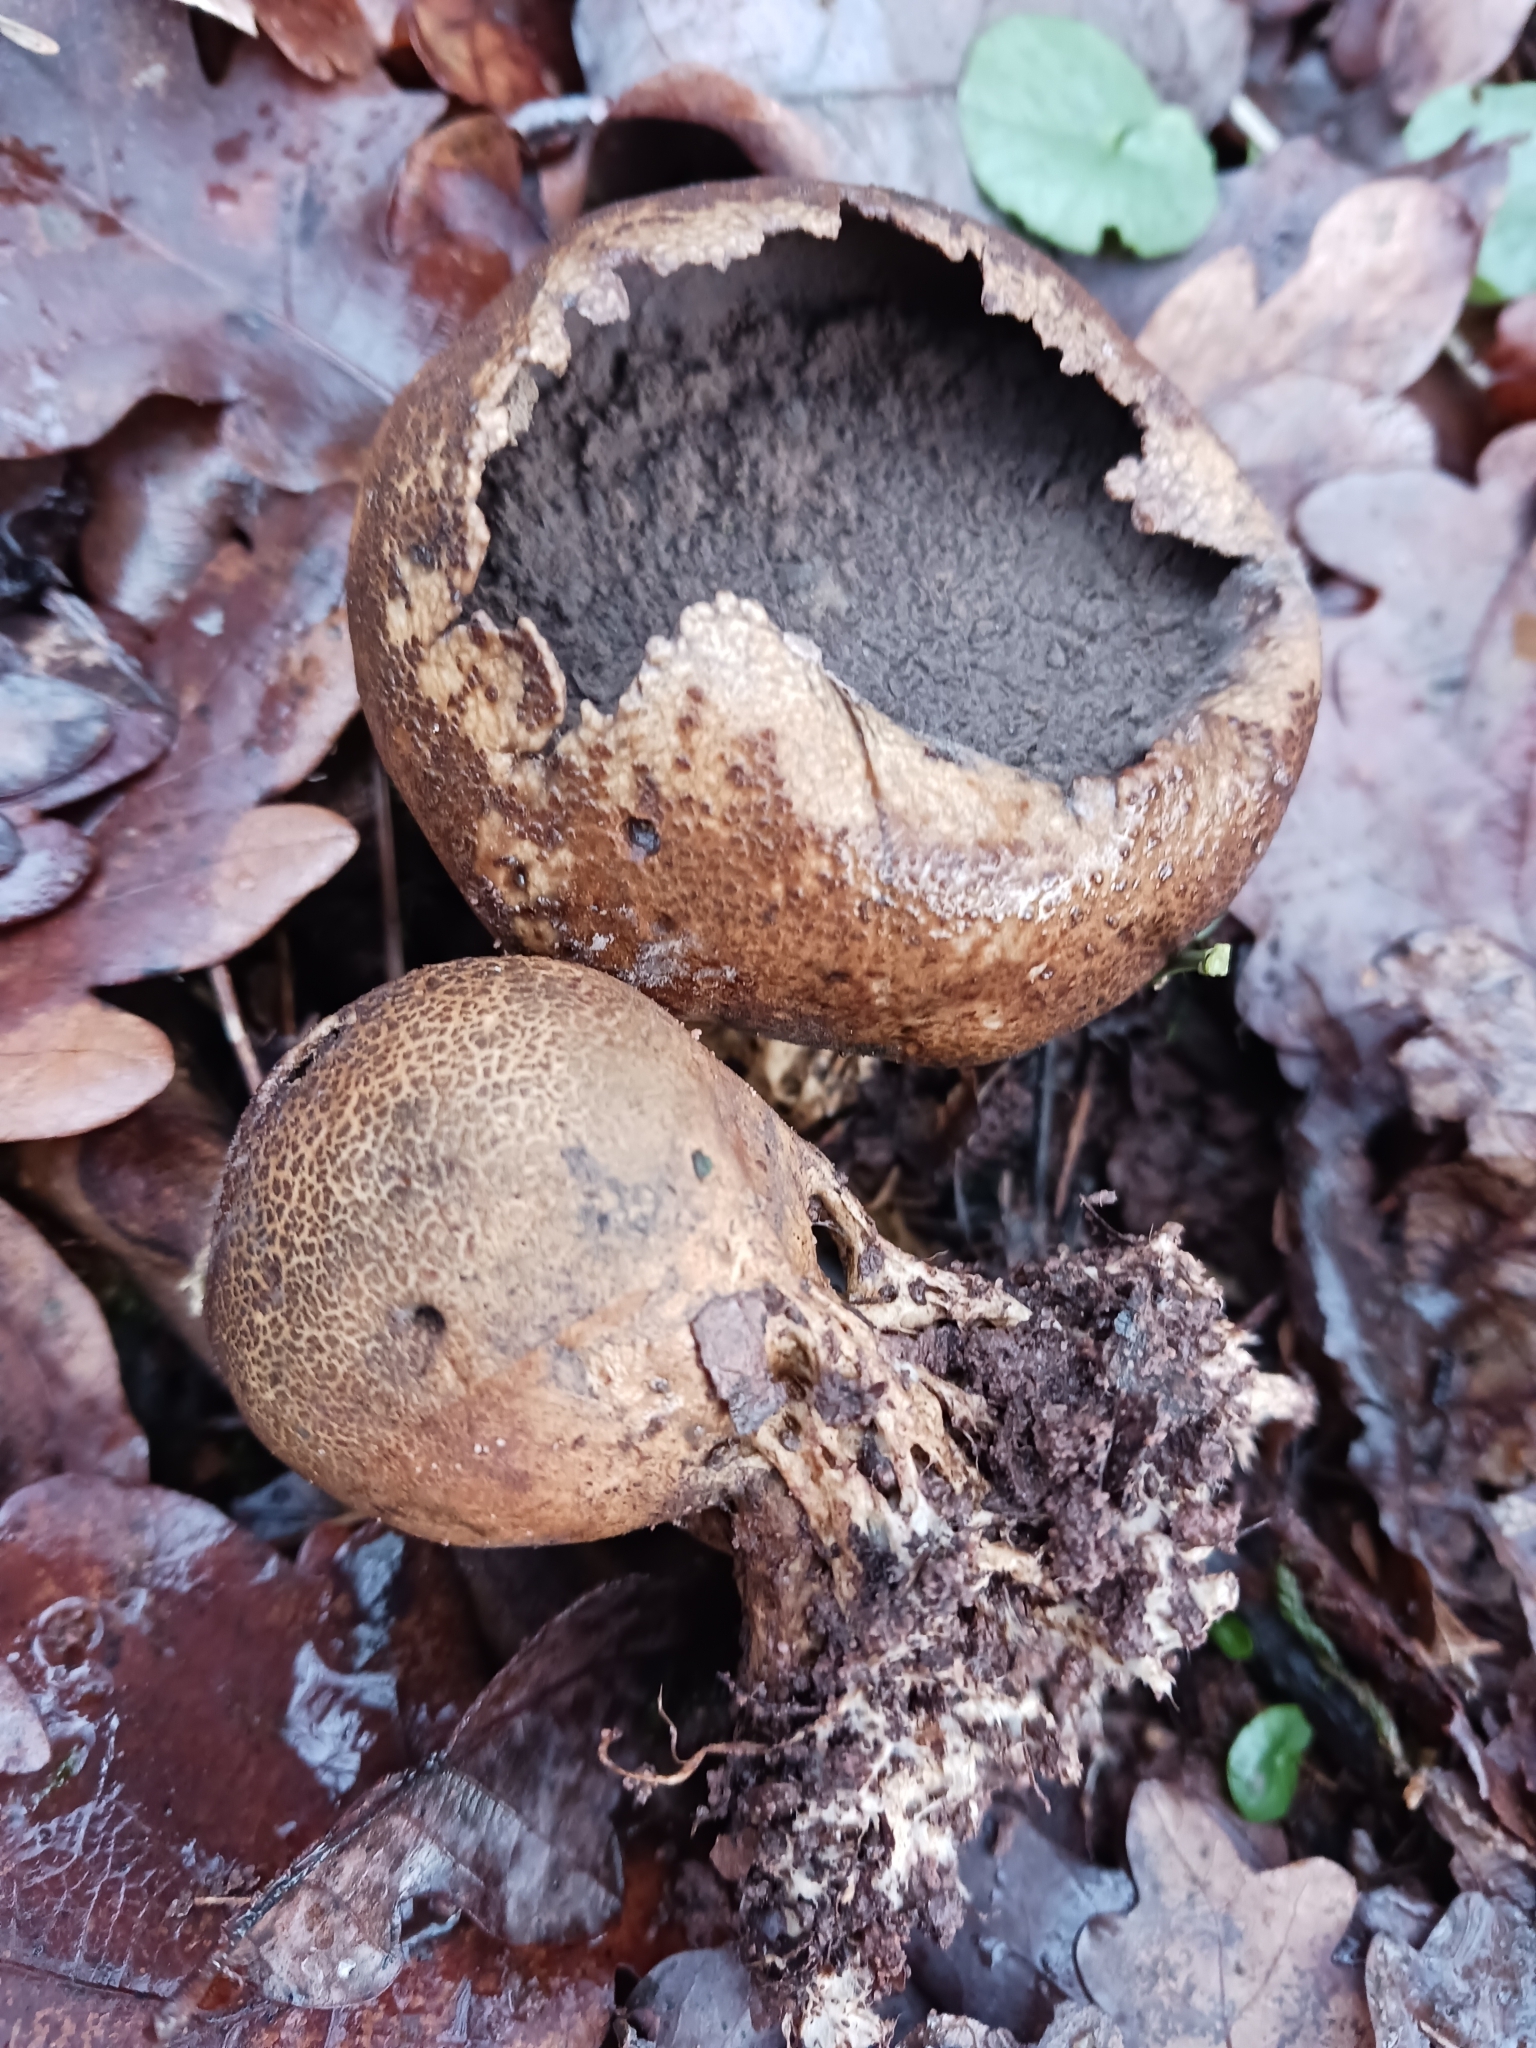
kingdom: Fungi
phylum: Basidiomycota
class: Agaricomycetes
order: Boletales
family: Sclerodermataceae
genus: Scleroderma
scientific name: Scleroderma citrinum
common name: Common earthball
